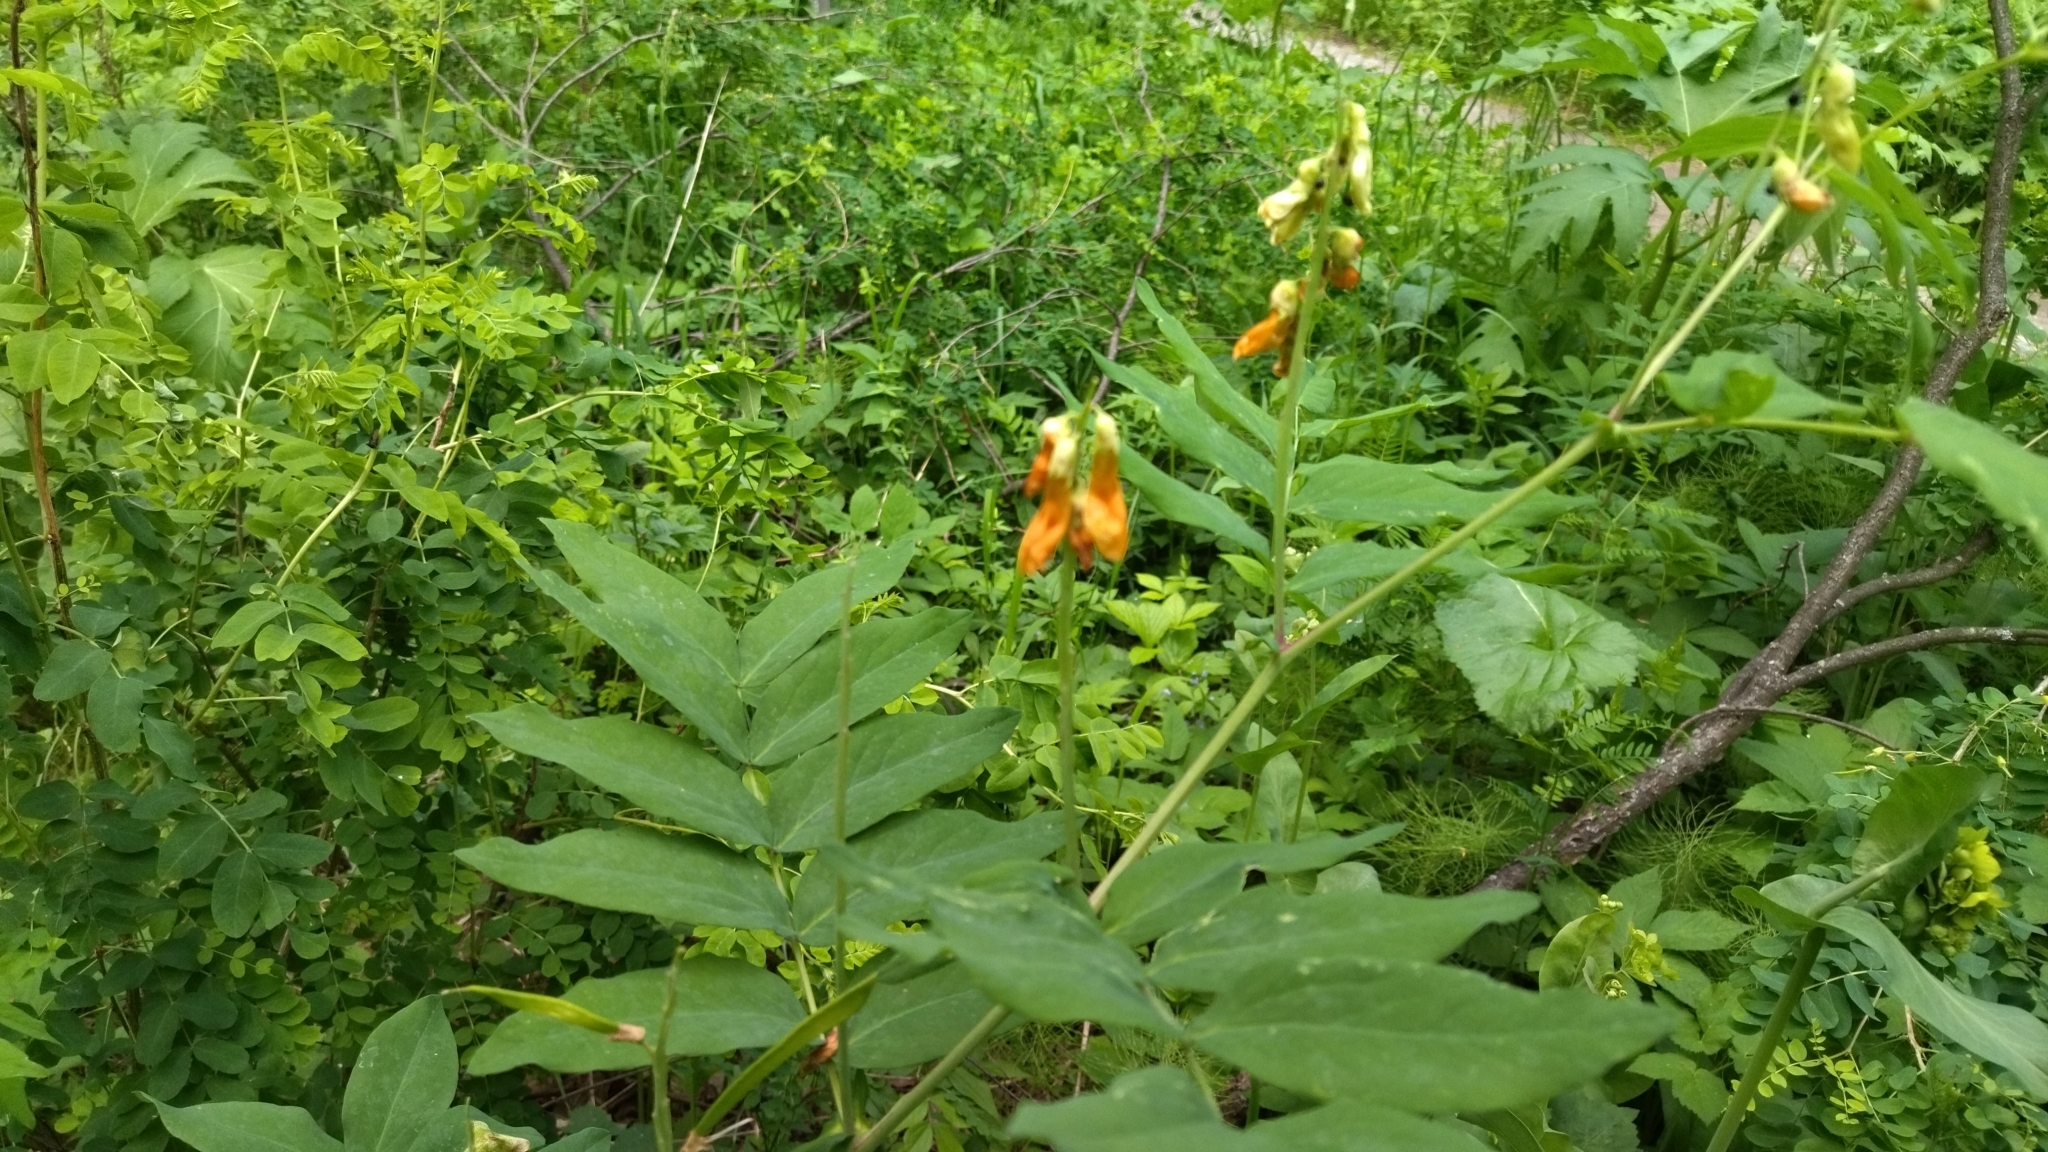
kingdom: Plantae
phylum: Tracheophyta
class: Magnoliopsida
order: Fabales
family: Fabaceae
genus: Lathyrus
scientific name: Lathyrus gmelinii
